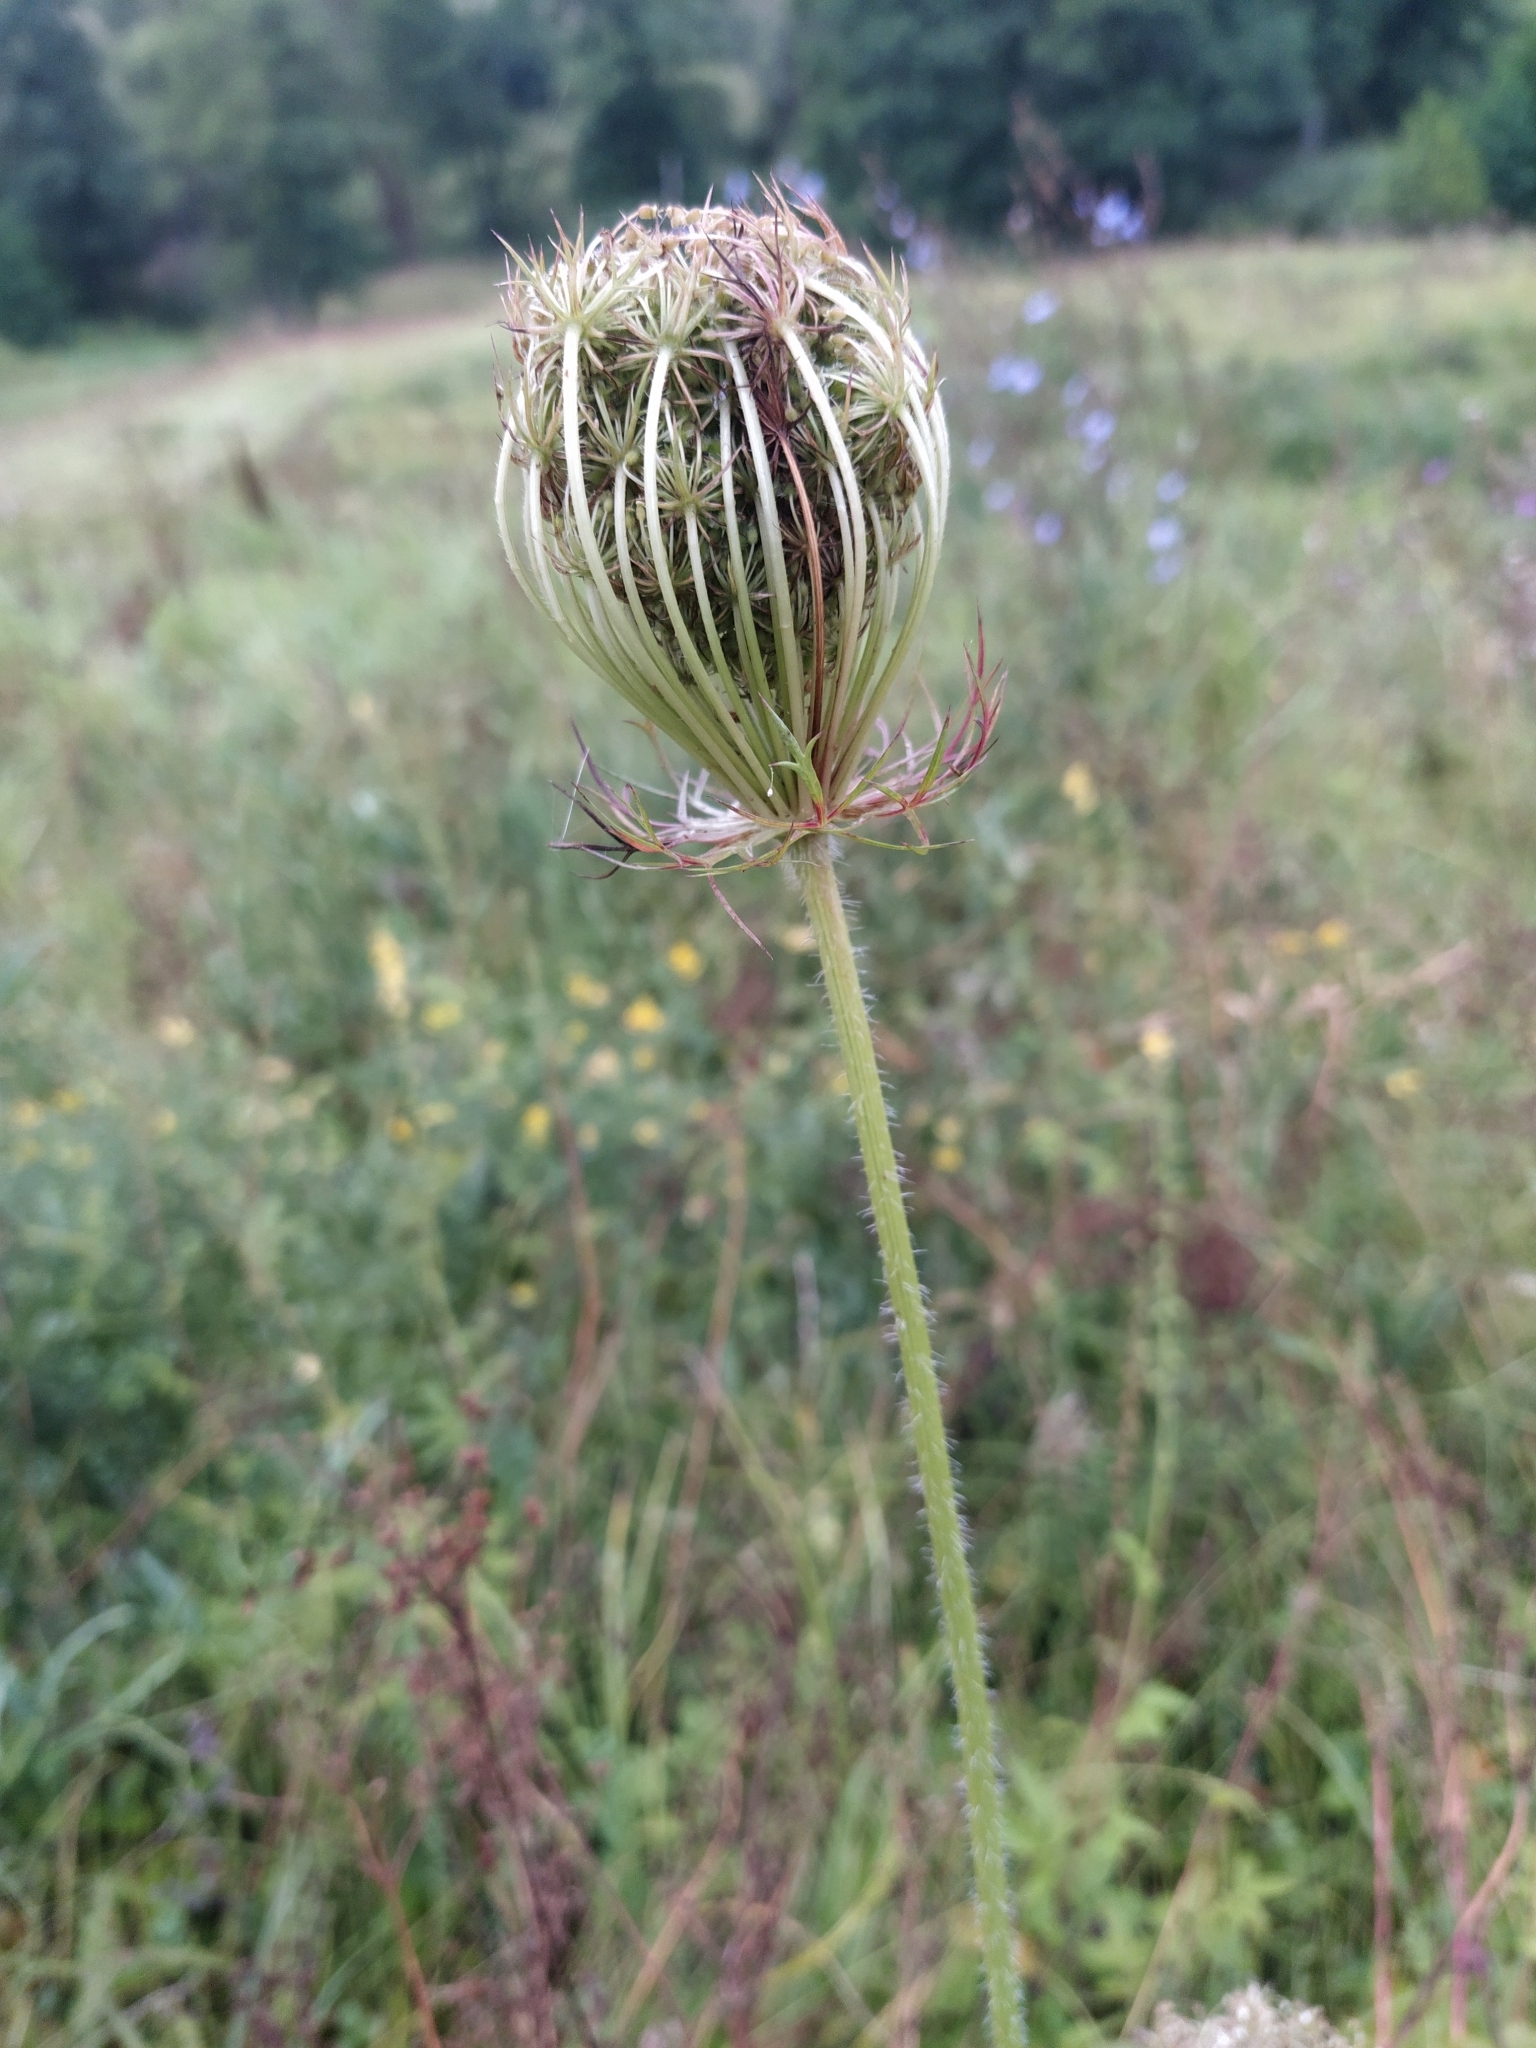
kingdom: Plantae
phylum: Tracheophyta
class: Magnoliopsida
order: Apiales
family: Apiaceae
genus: Daucus
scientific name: Daucus carota
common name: Wild carrot
